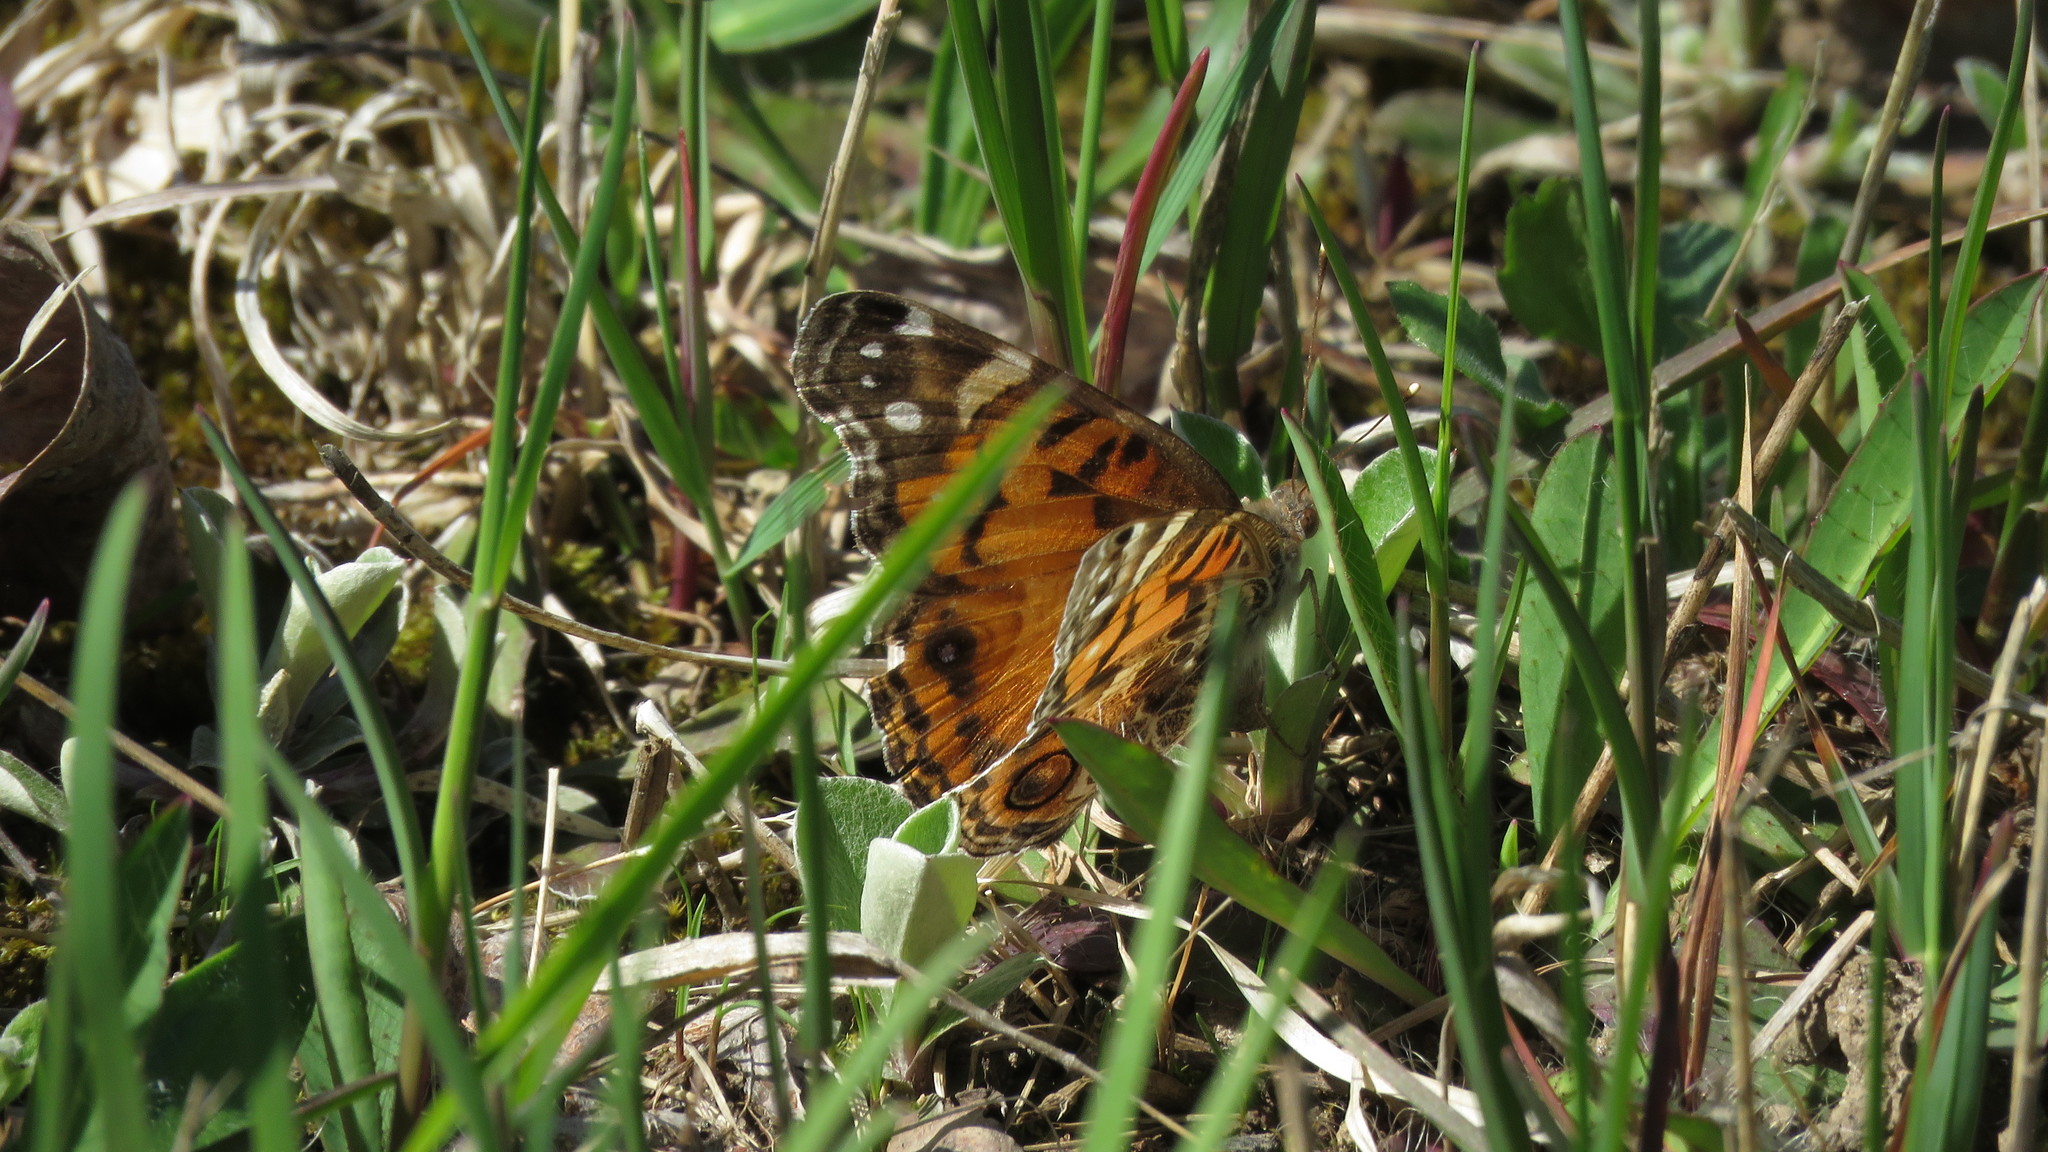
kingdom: Animalia
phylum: Arthropoda
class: Insecta
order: Lepidoptera
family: Nymphalidae
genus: Vanessa
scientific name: Vanessa virginiensis
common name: American lady
